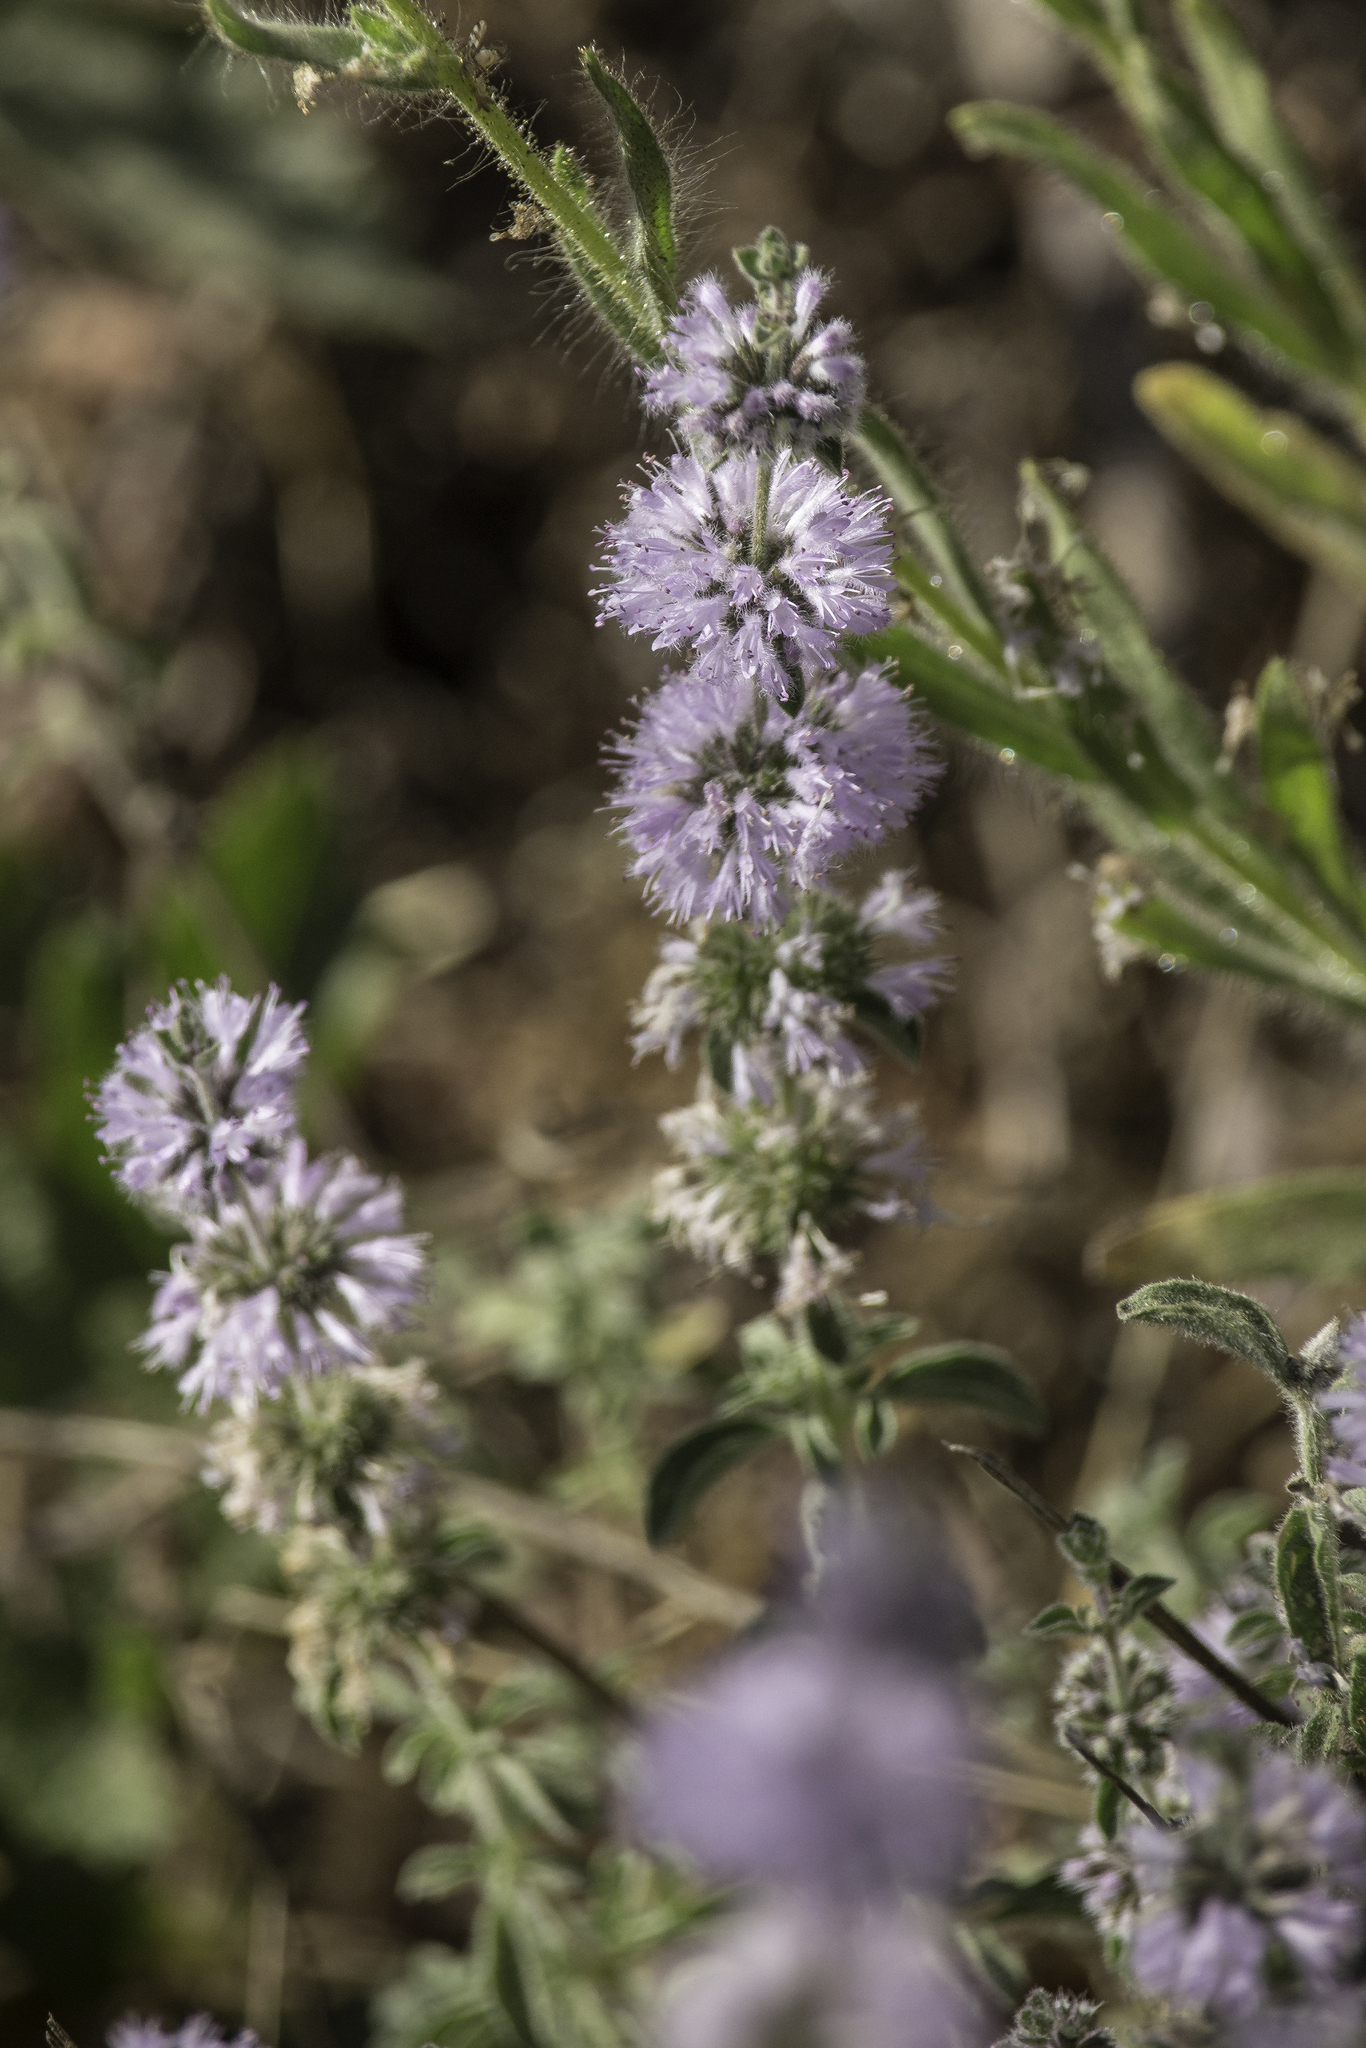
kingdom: Plantae
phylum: Tracheophyta
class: Magnoliopsida
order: Lamiales
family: Lamiaceae
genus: Mentha
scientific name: Mentha pulegium
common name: Pennyroyal
